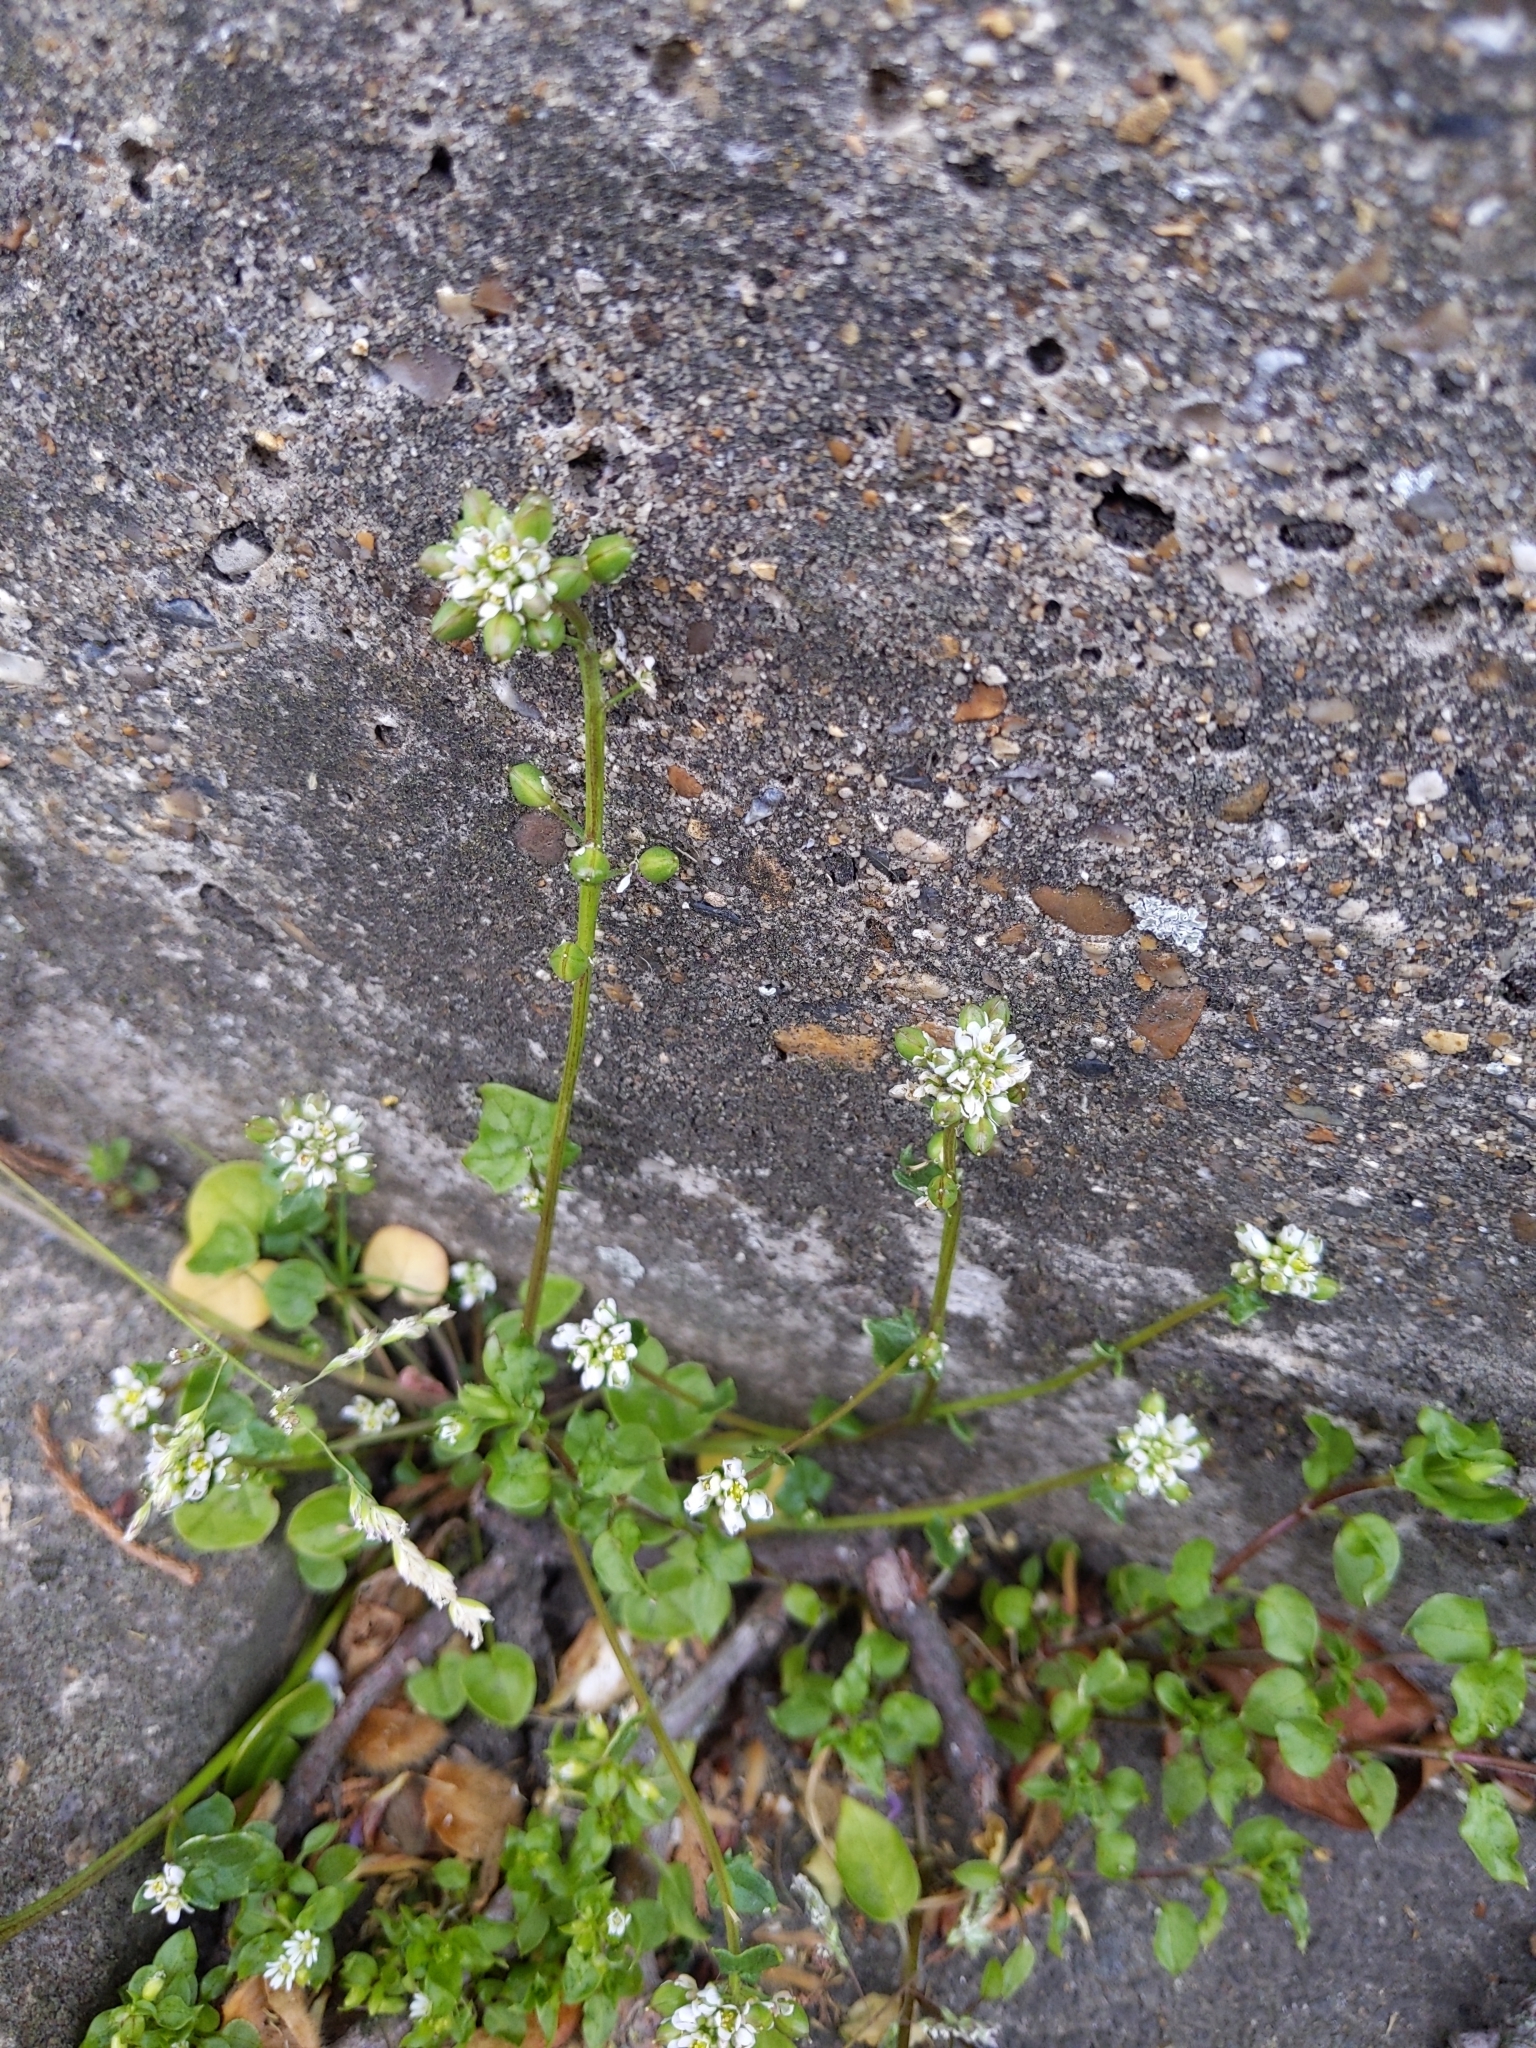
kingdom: Plantae
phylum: Tracheophyta
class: Magnoliopsida
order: Brassicales
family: Brassicaceae
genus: Cochlearia
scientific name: Cochlearia danica
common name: Early scurvygrass
